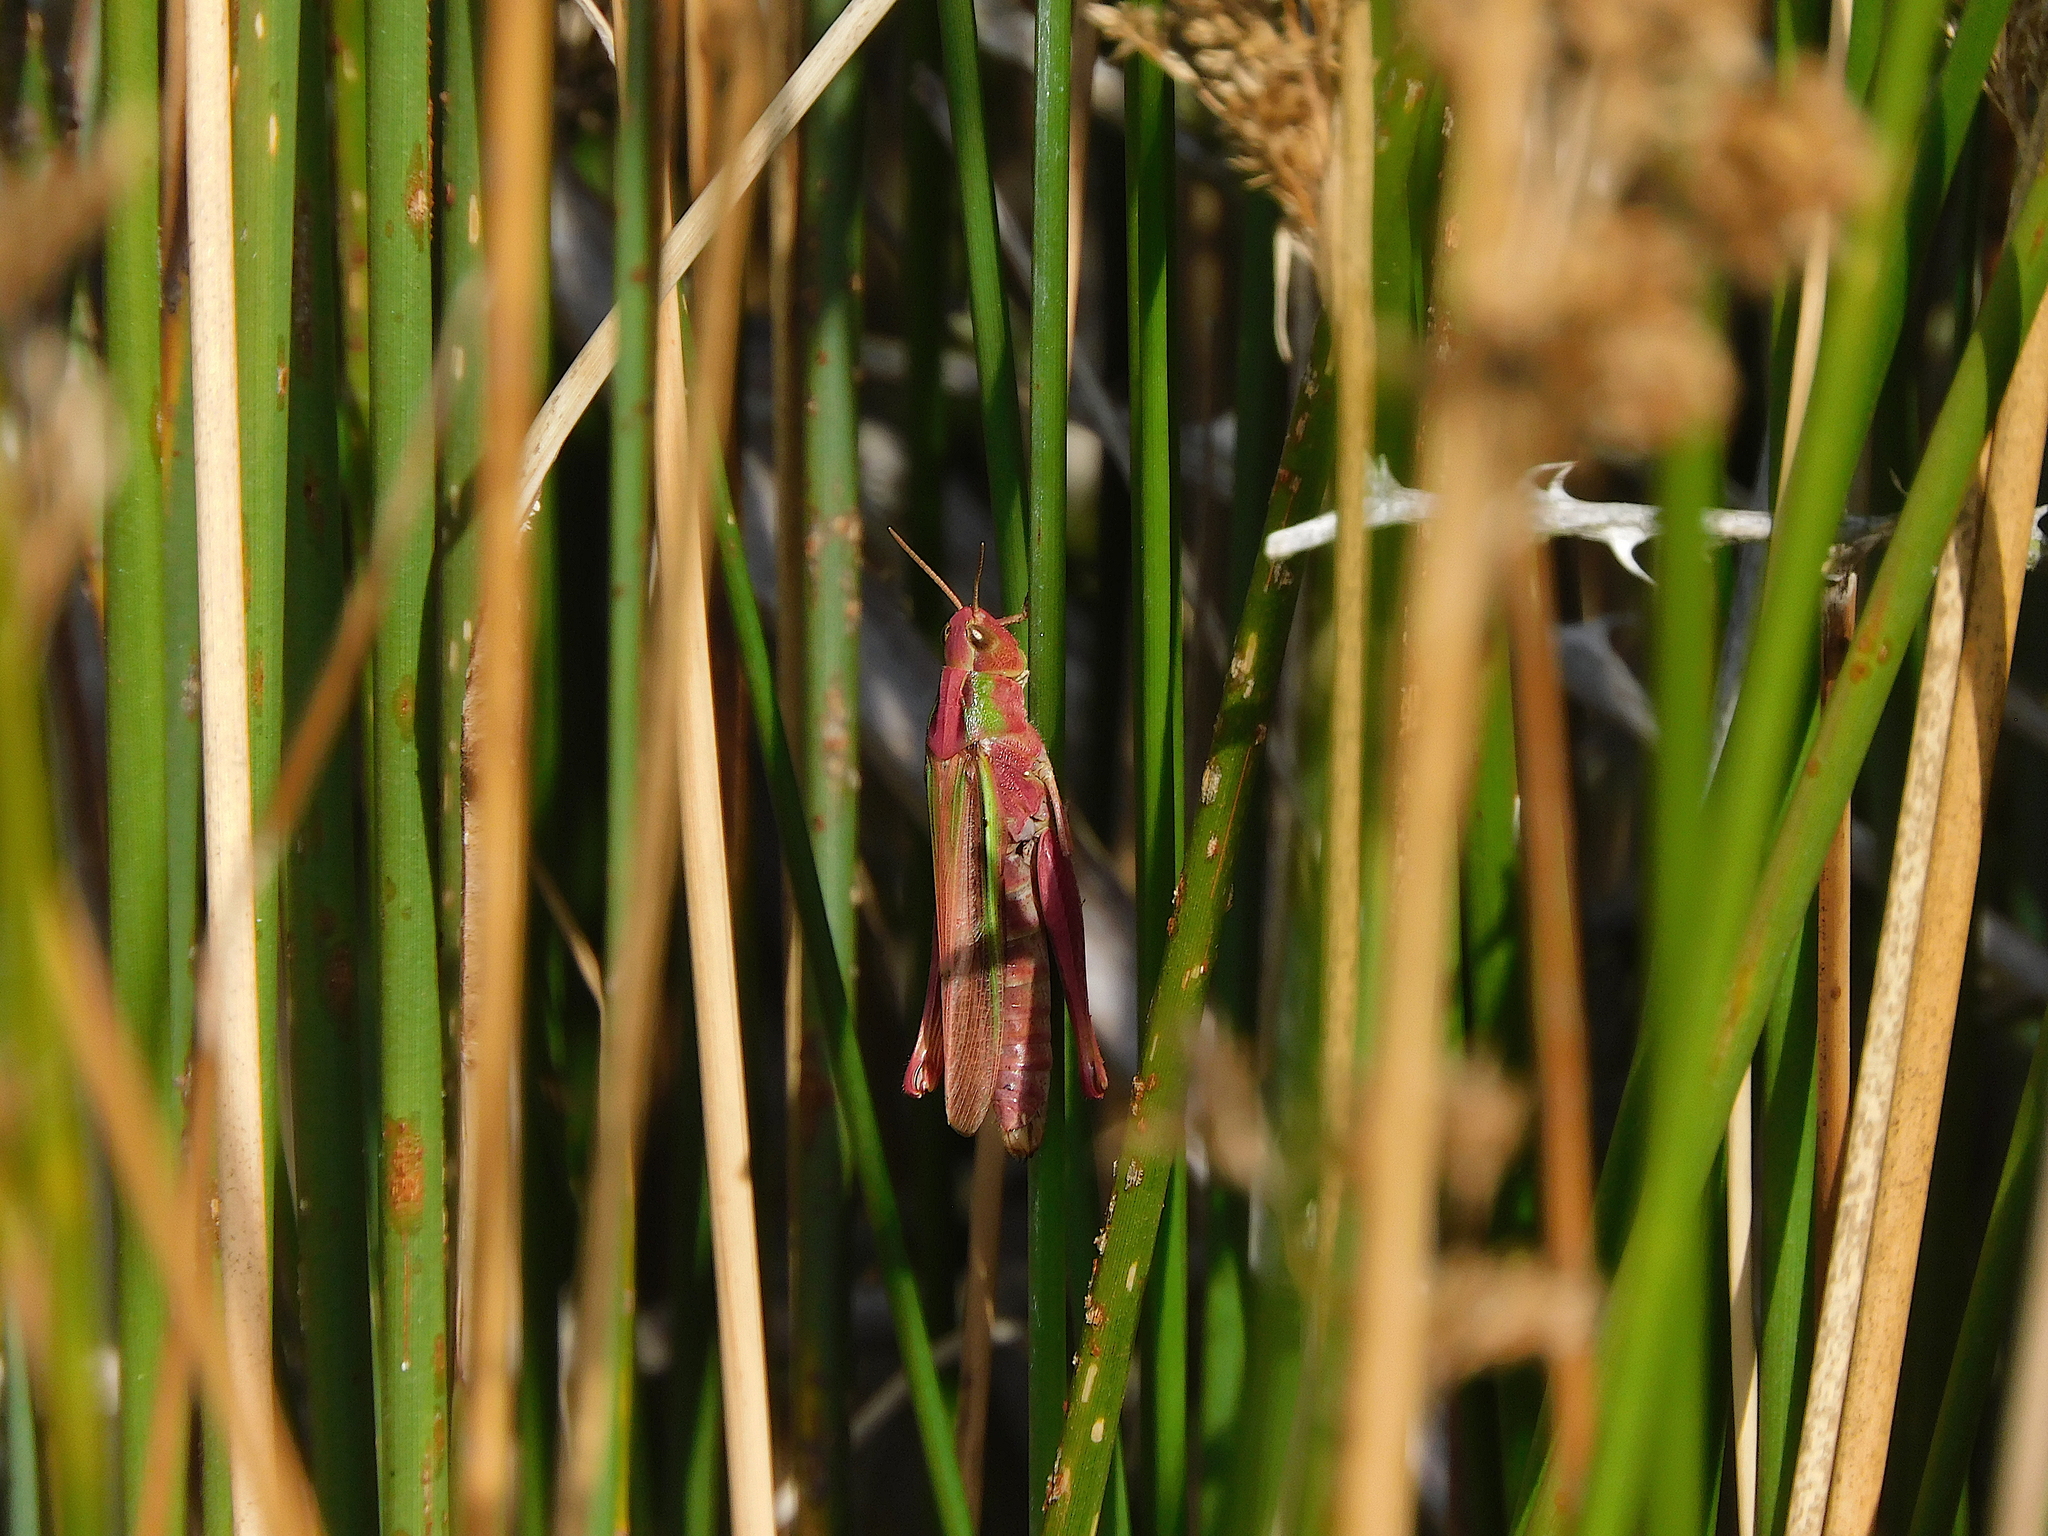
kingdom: Animalia
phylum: Arthropoda
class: Insecta
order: Orthoptera
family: Acrididae
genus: Schizobothrus
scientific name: Schizobothrus flavovittatus
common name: Disappearing grasshopper
